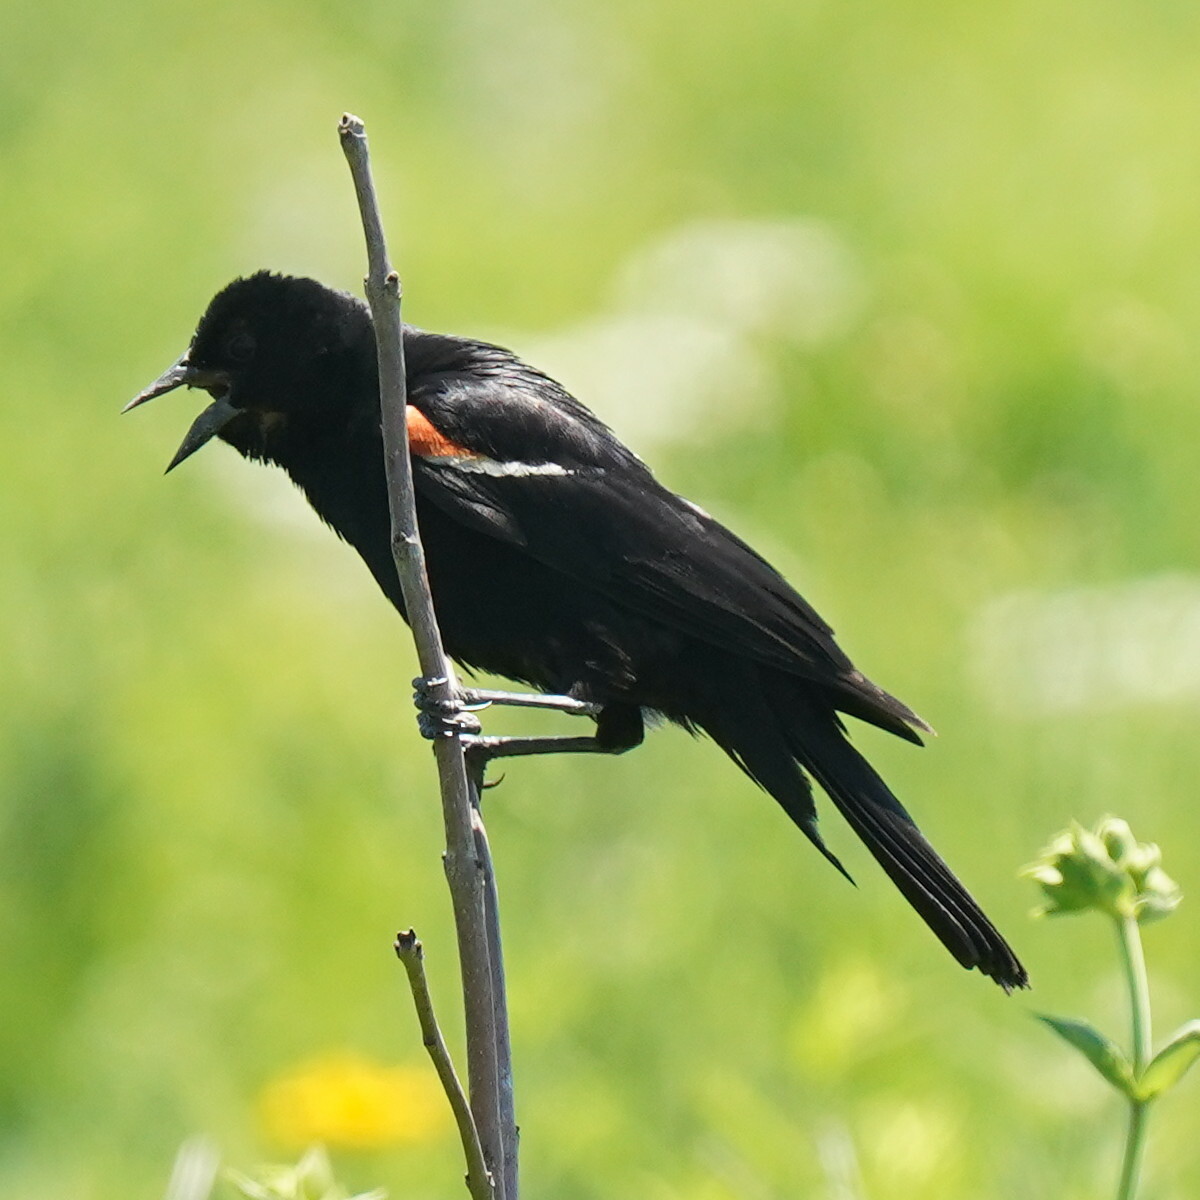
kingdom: Animalia
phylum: Chordata
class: Aves
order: Passeriformes
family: Icteridae
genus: Agelaius
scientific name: Agelaius phoeniceus
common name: Red-winged blackbird
